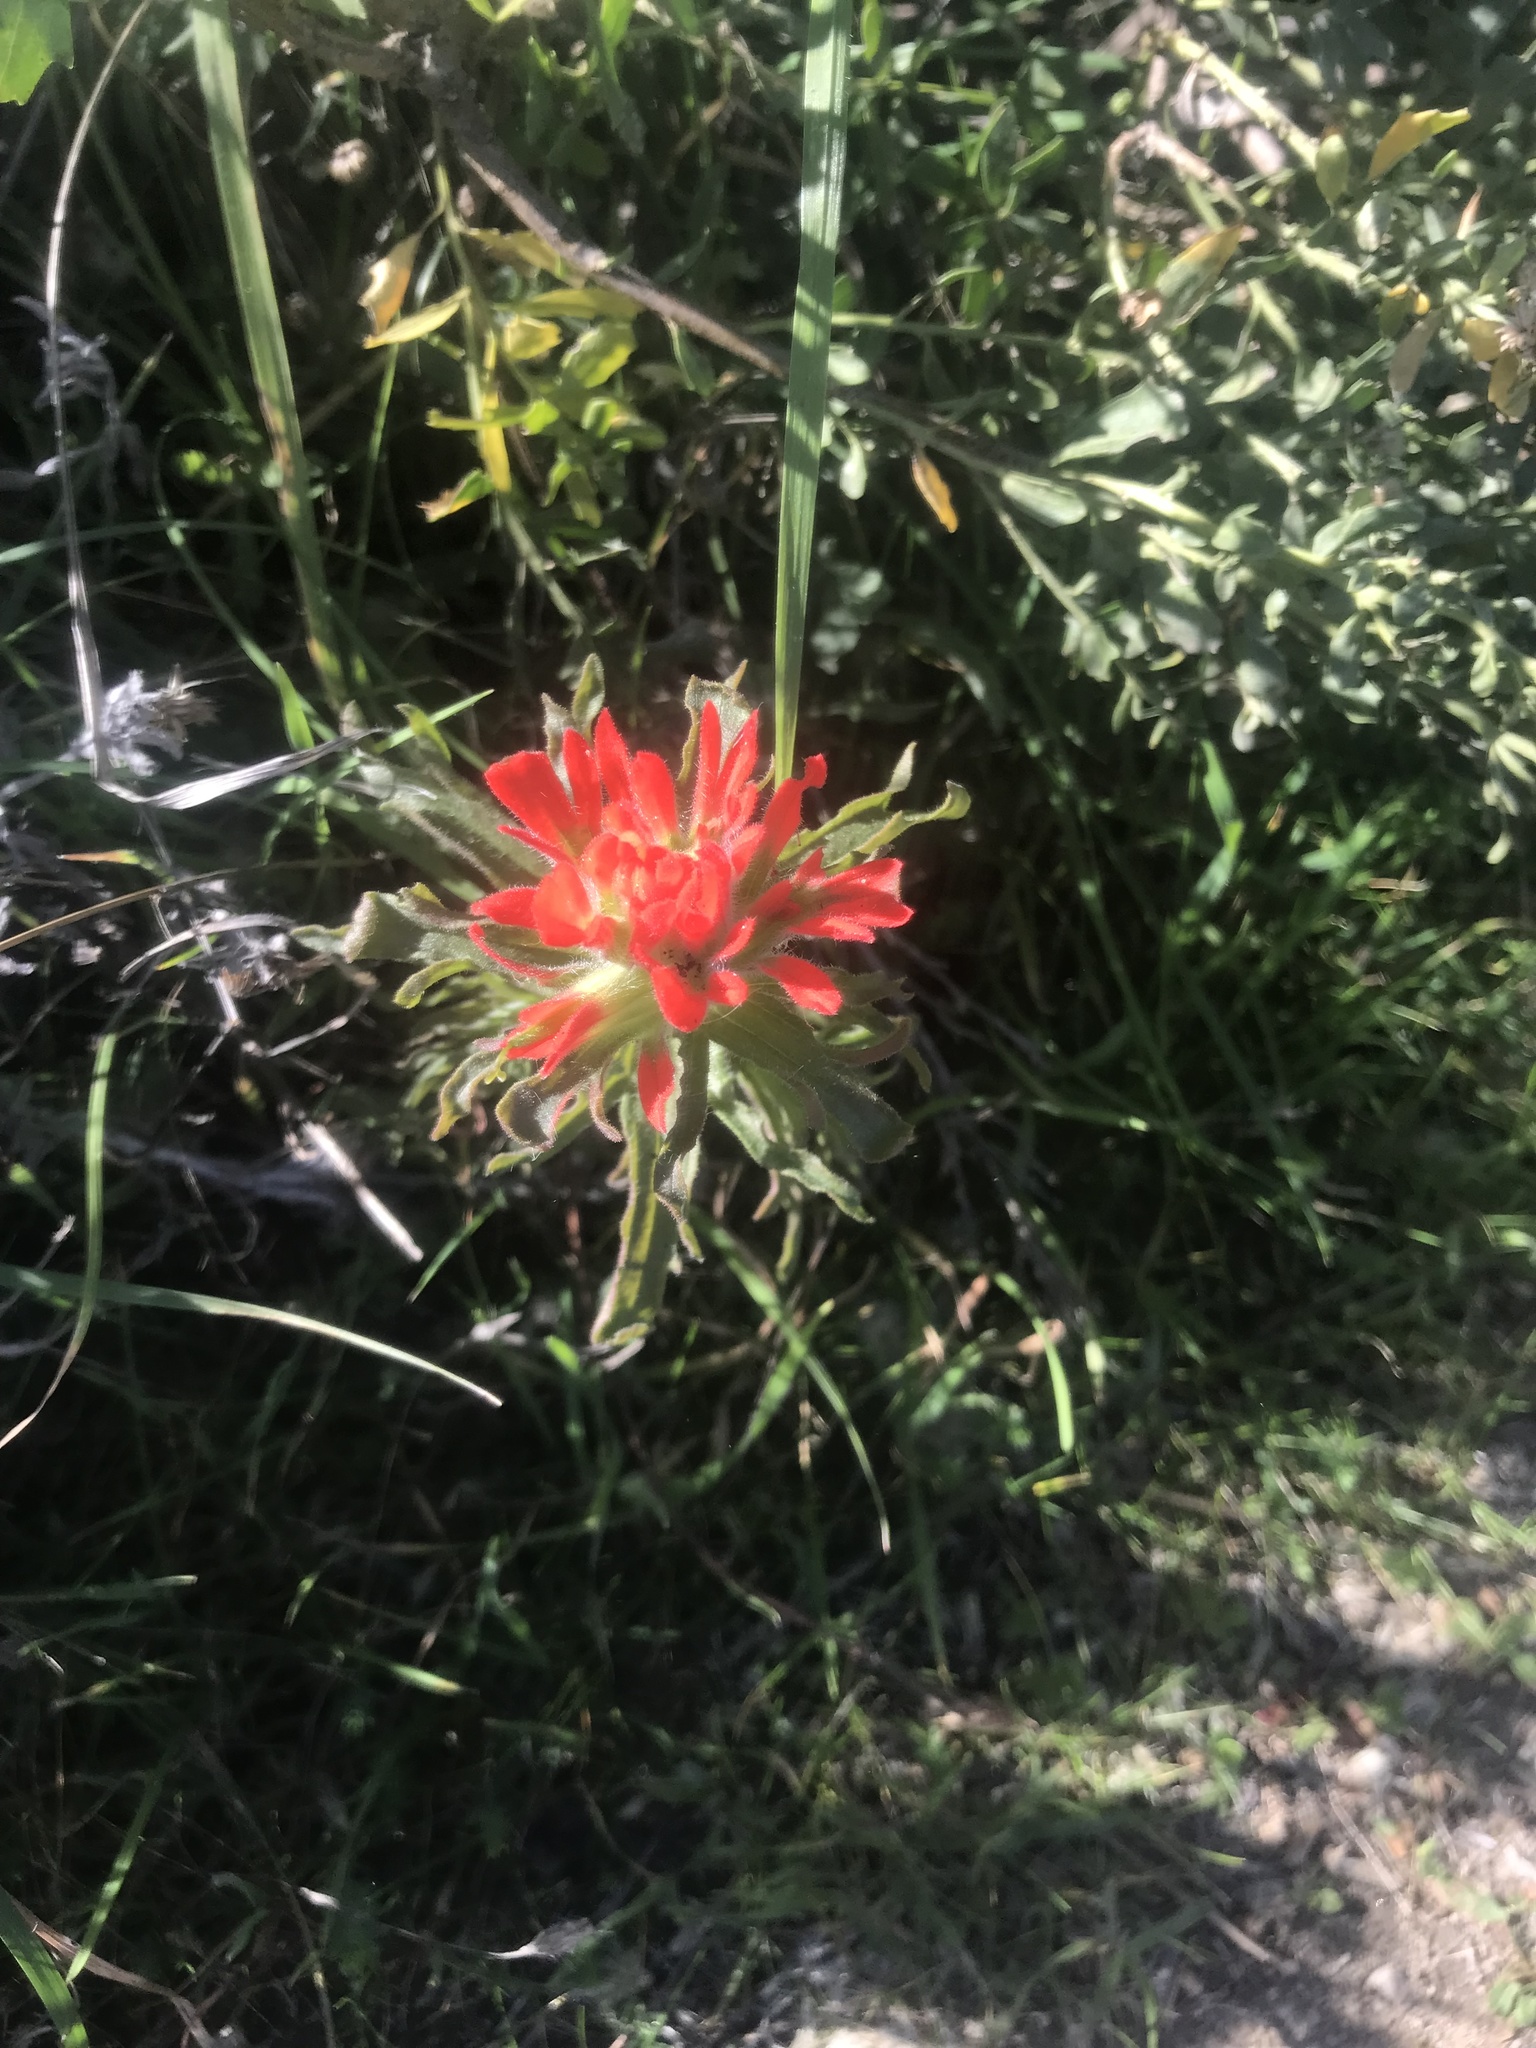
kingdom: Plantae
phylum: Tracheophyta
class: Magnoliopsida
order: Lamiales
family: Orobanchaceae
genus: Castilleja
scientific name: Castilleja affinis
